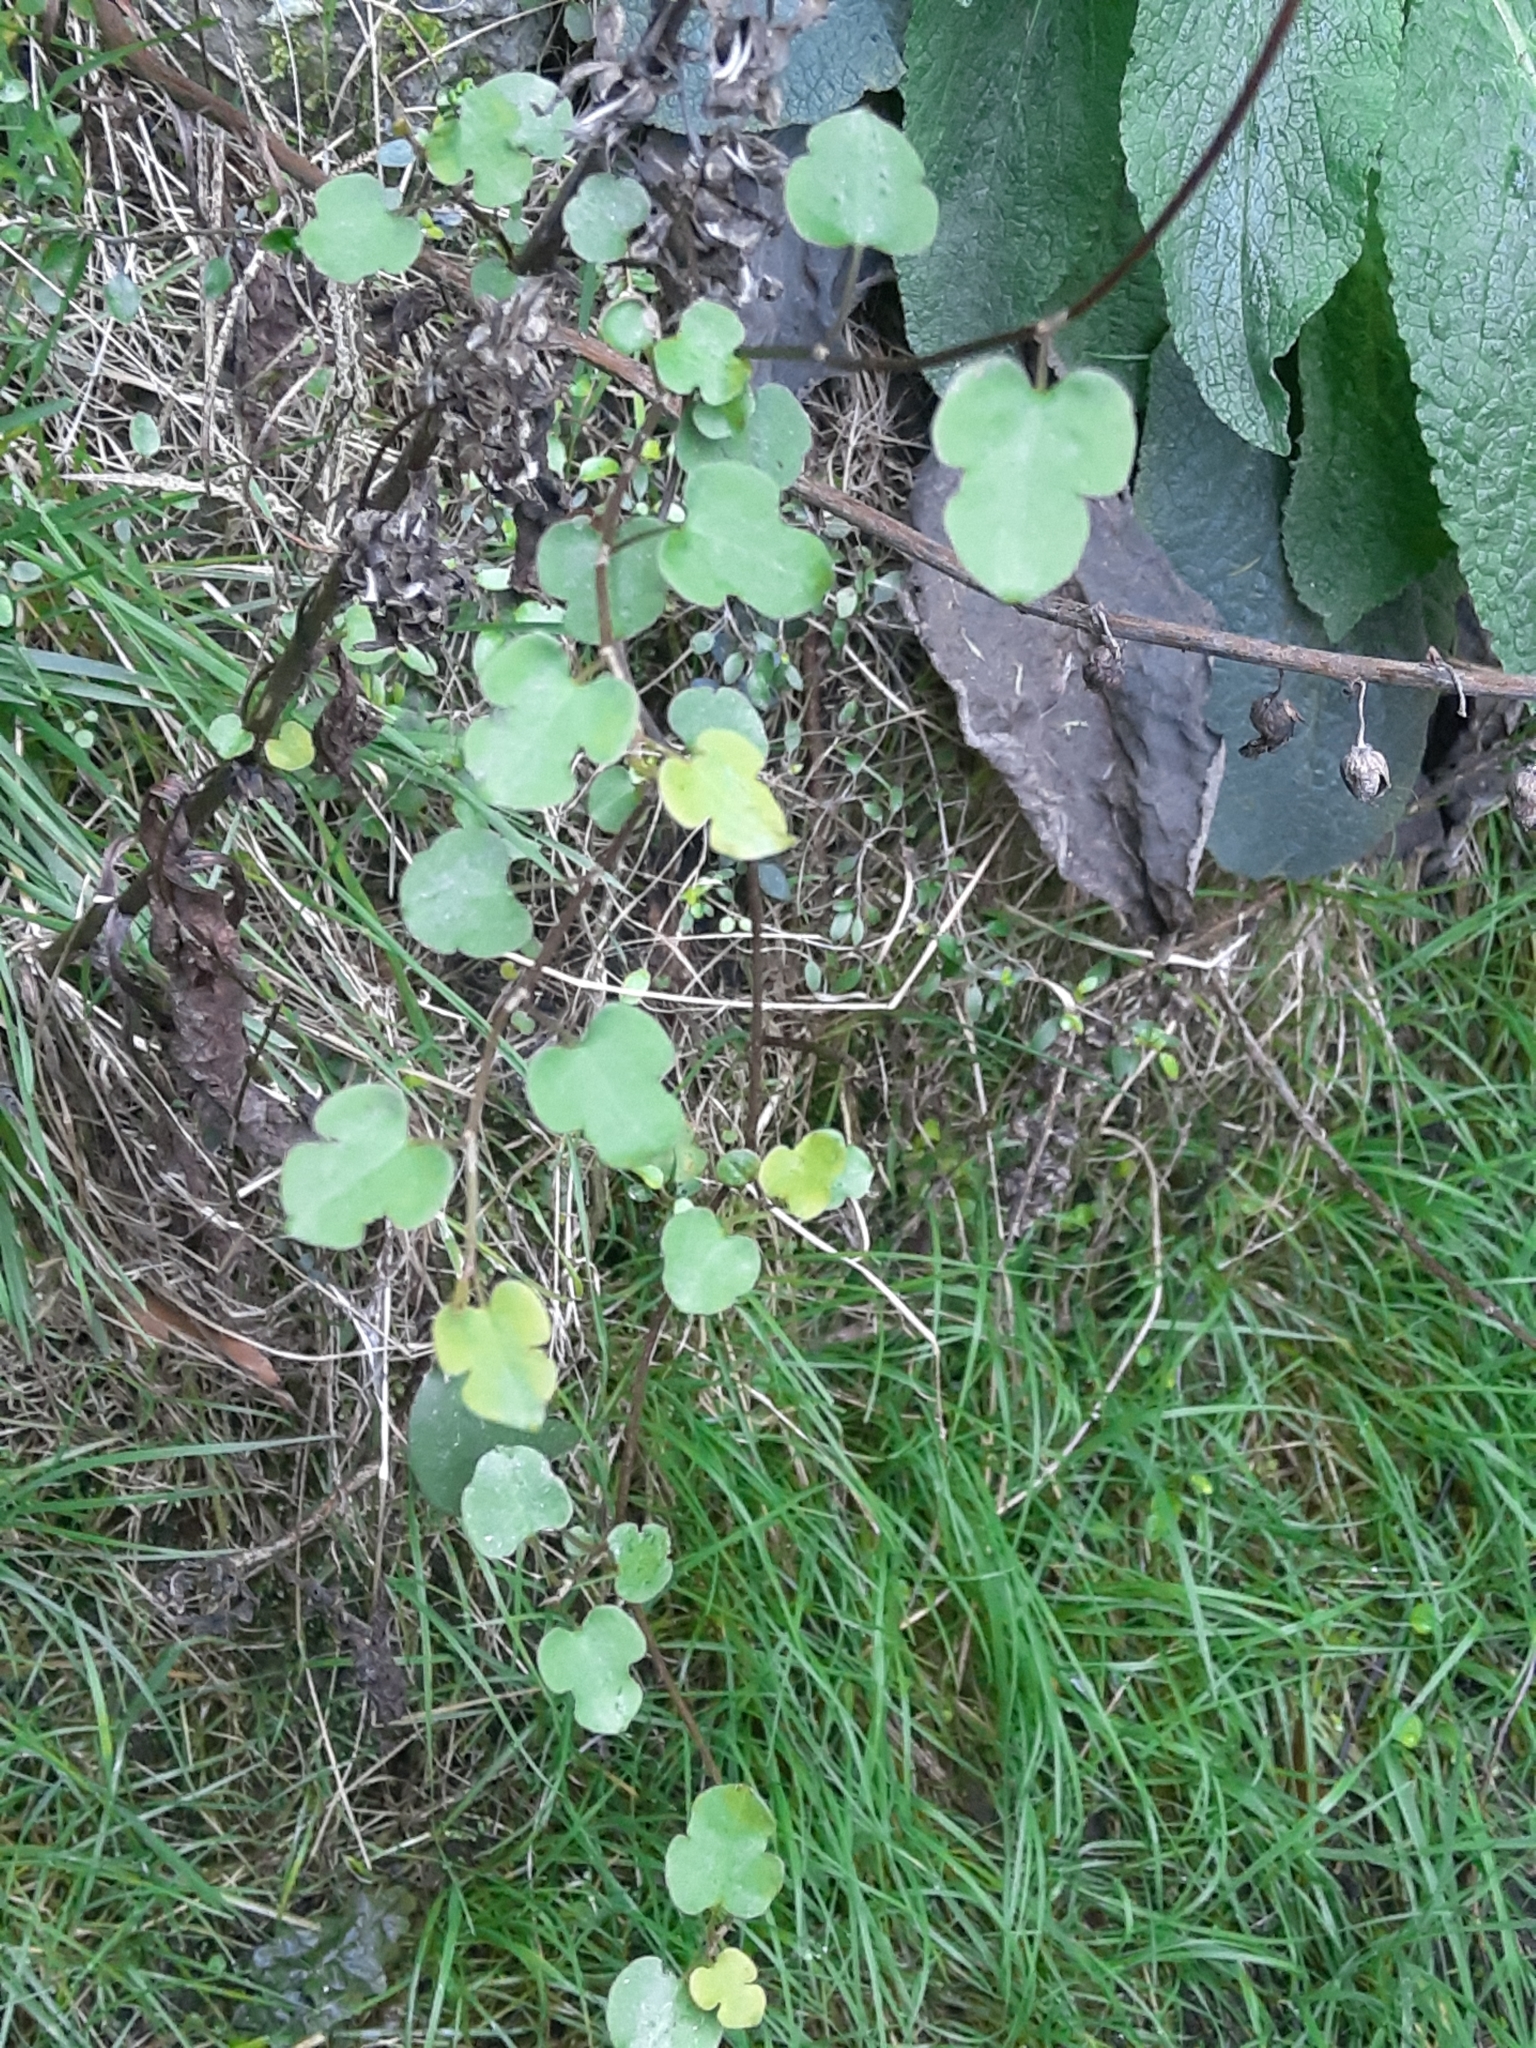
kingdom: Plantae
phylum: Tracheophyta
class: Magnoliopsida
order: Caryophyllales
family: Polygonaceae
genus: Muehlenbeckia
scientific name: Muehlenbeckia australis
